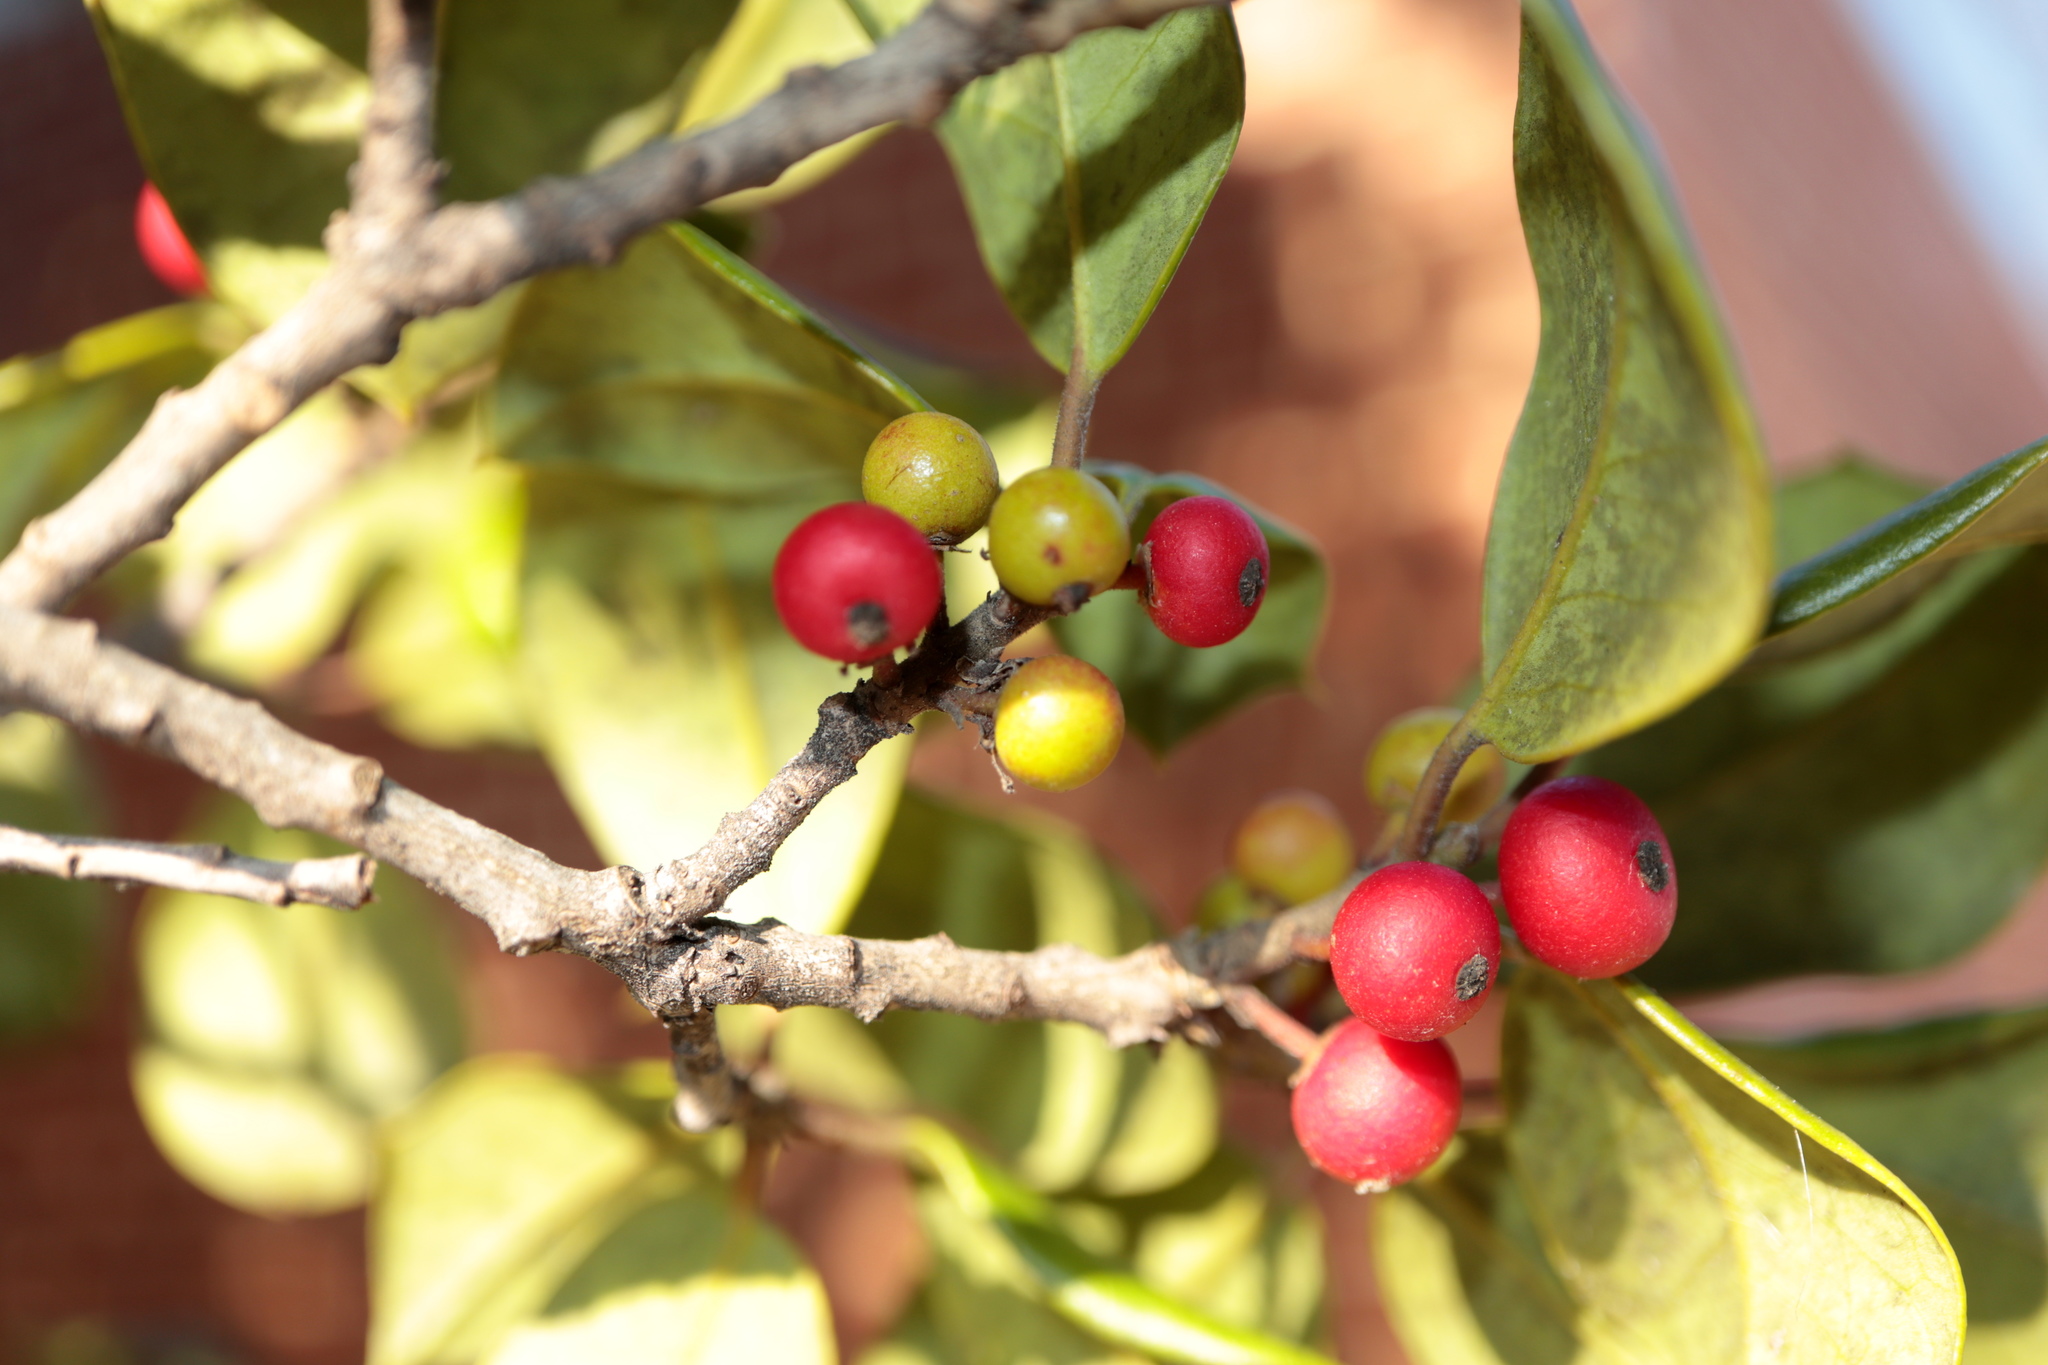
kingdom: Animalia
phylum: Arthropoda
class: Insecta
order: Diptera
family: Cecidomyiidae
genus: Asphondylia
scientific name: Asphondylia ilicicola
